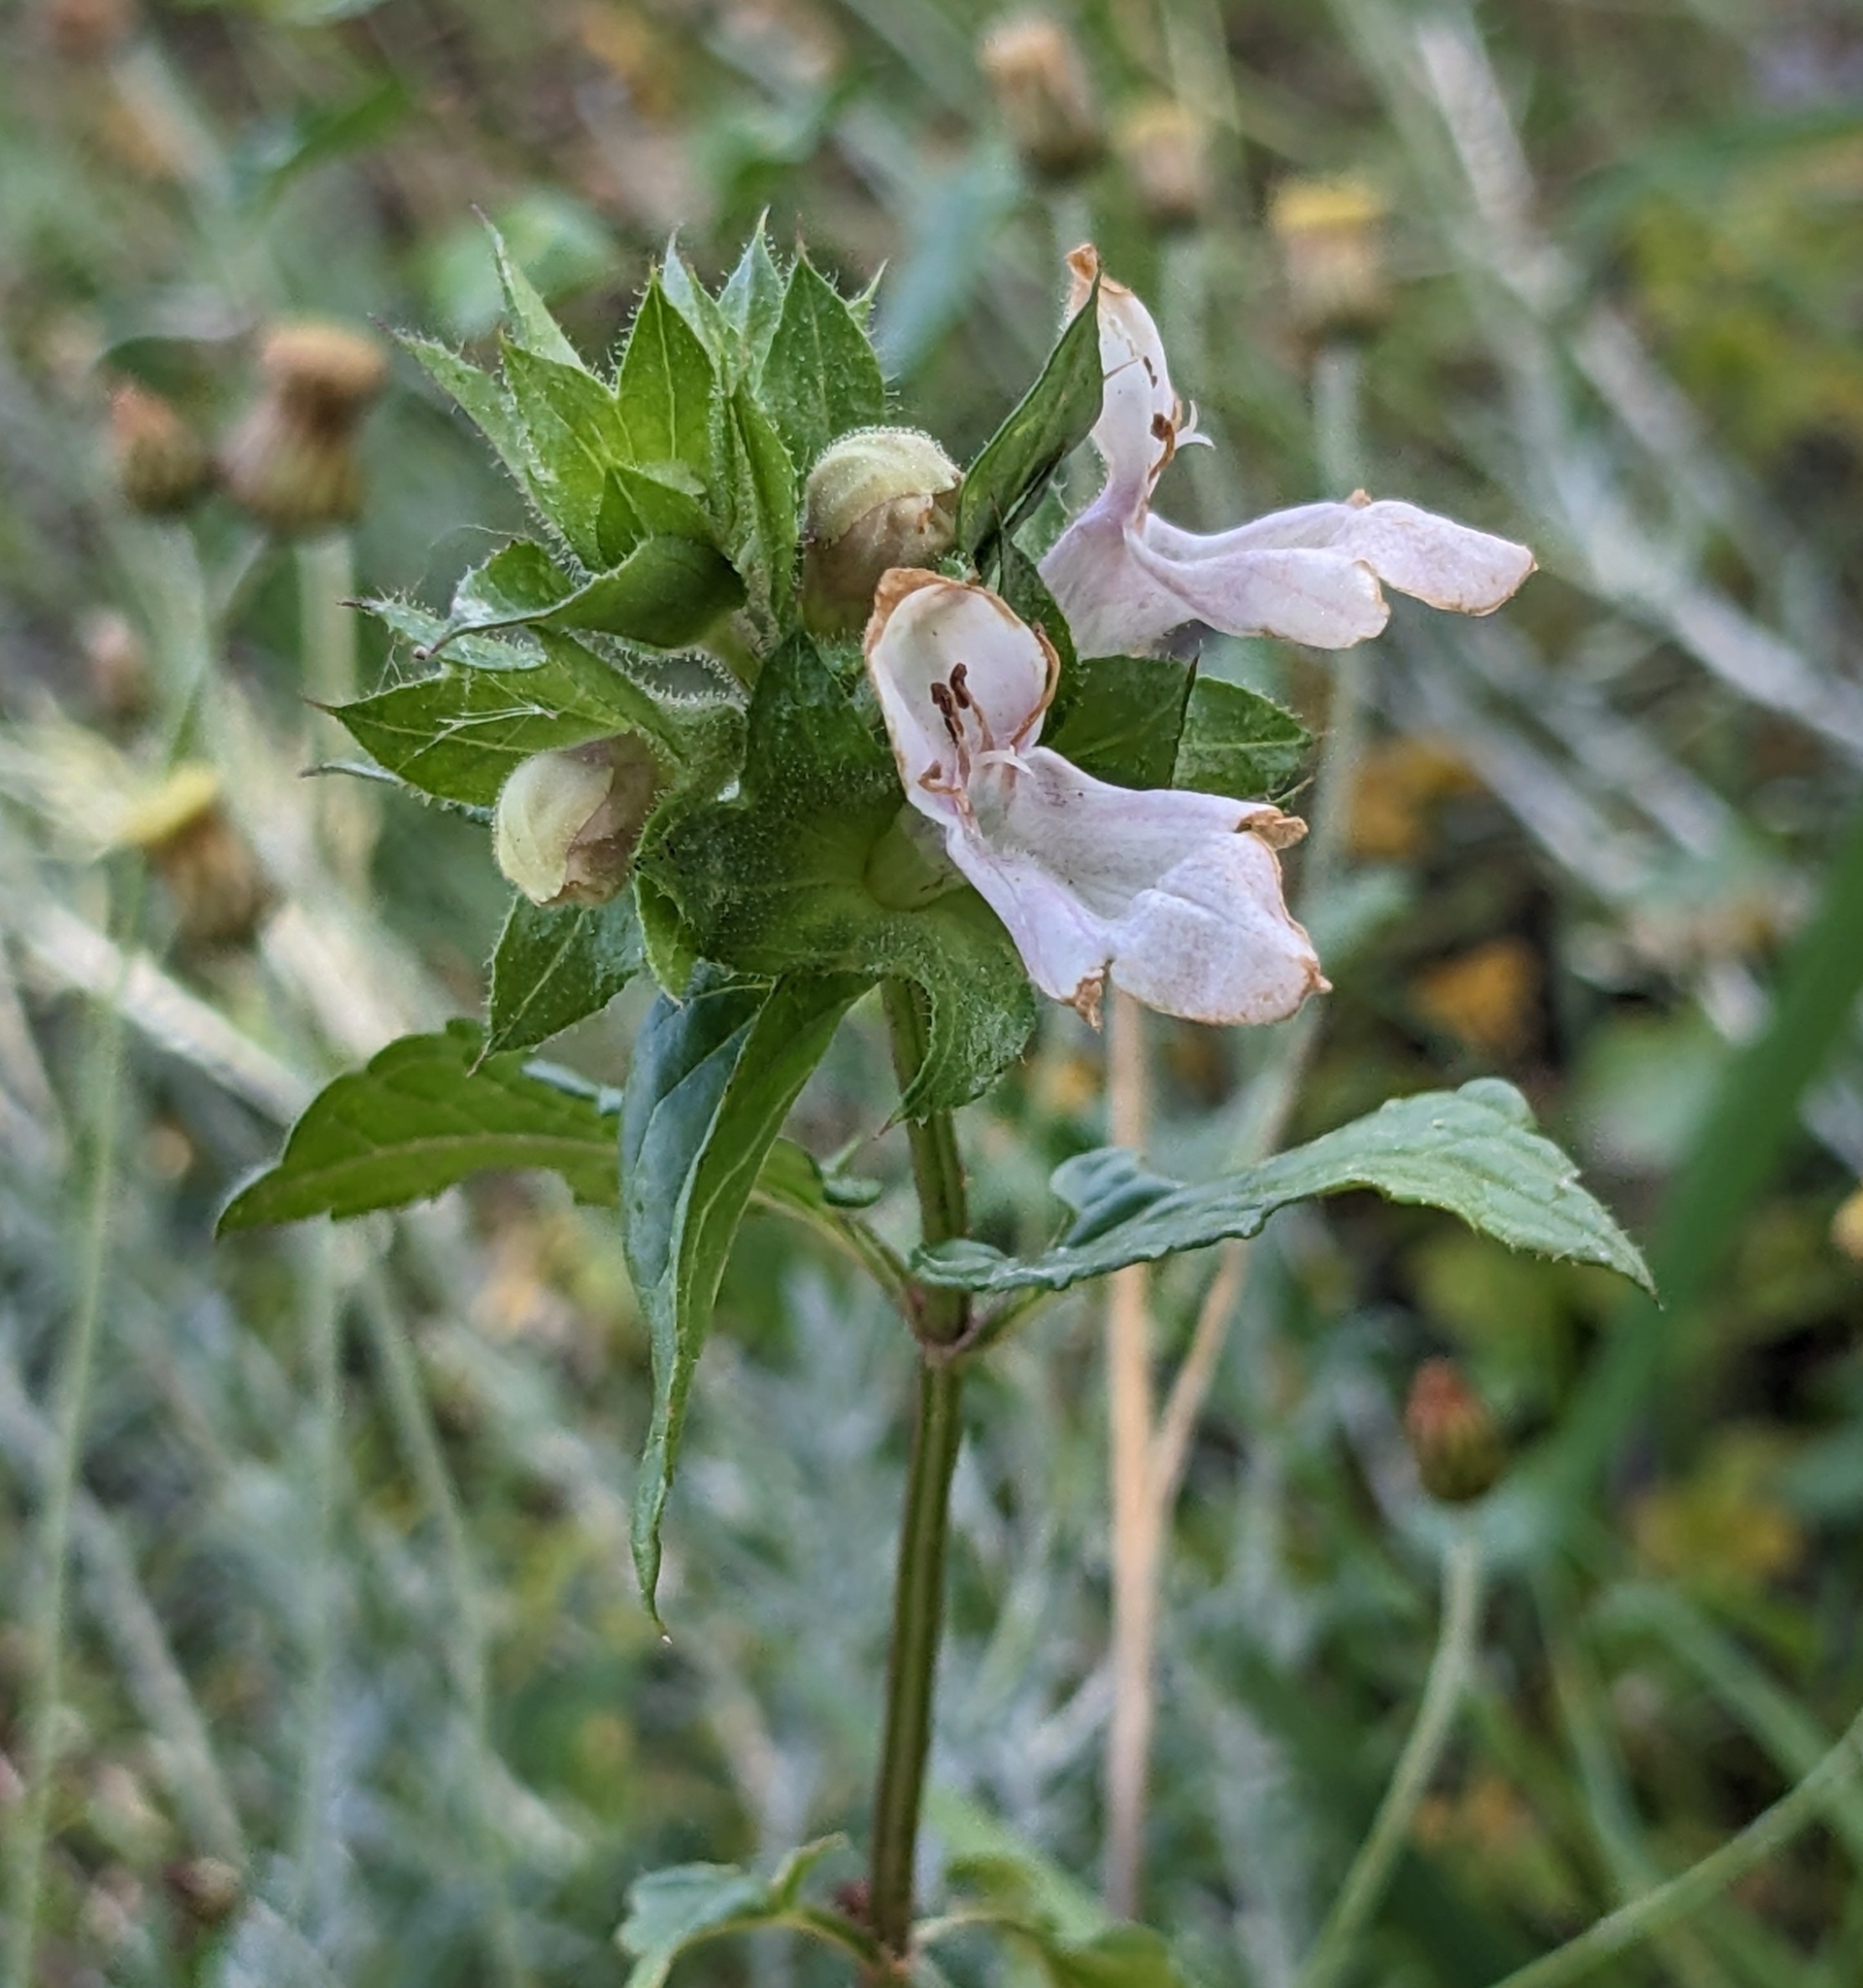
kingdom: Plantae
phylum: Tracheophyta
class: Magnoliopsida
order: Lamiales
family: Lamiaceae
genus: Prasium
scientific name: Prasium majus
